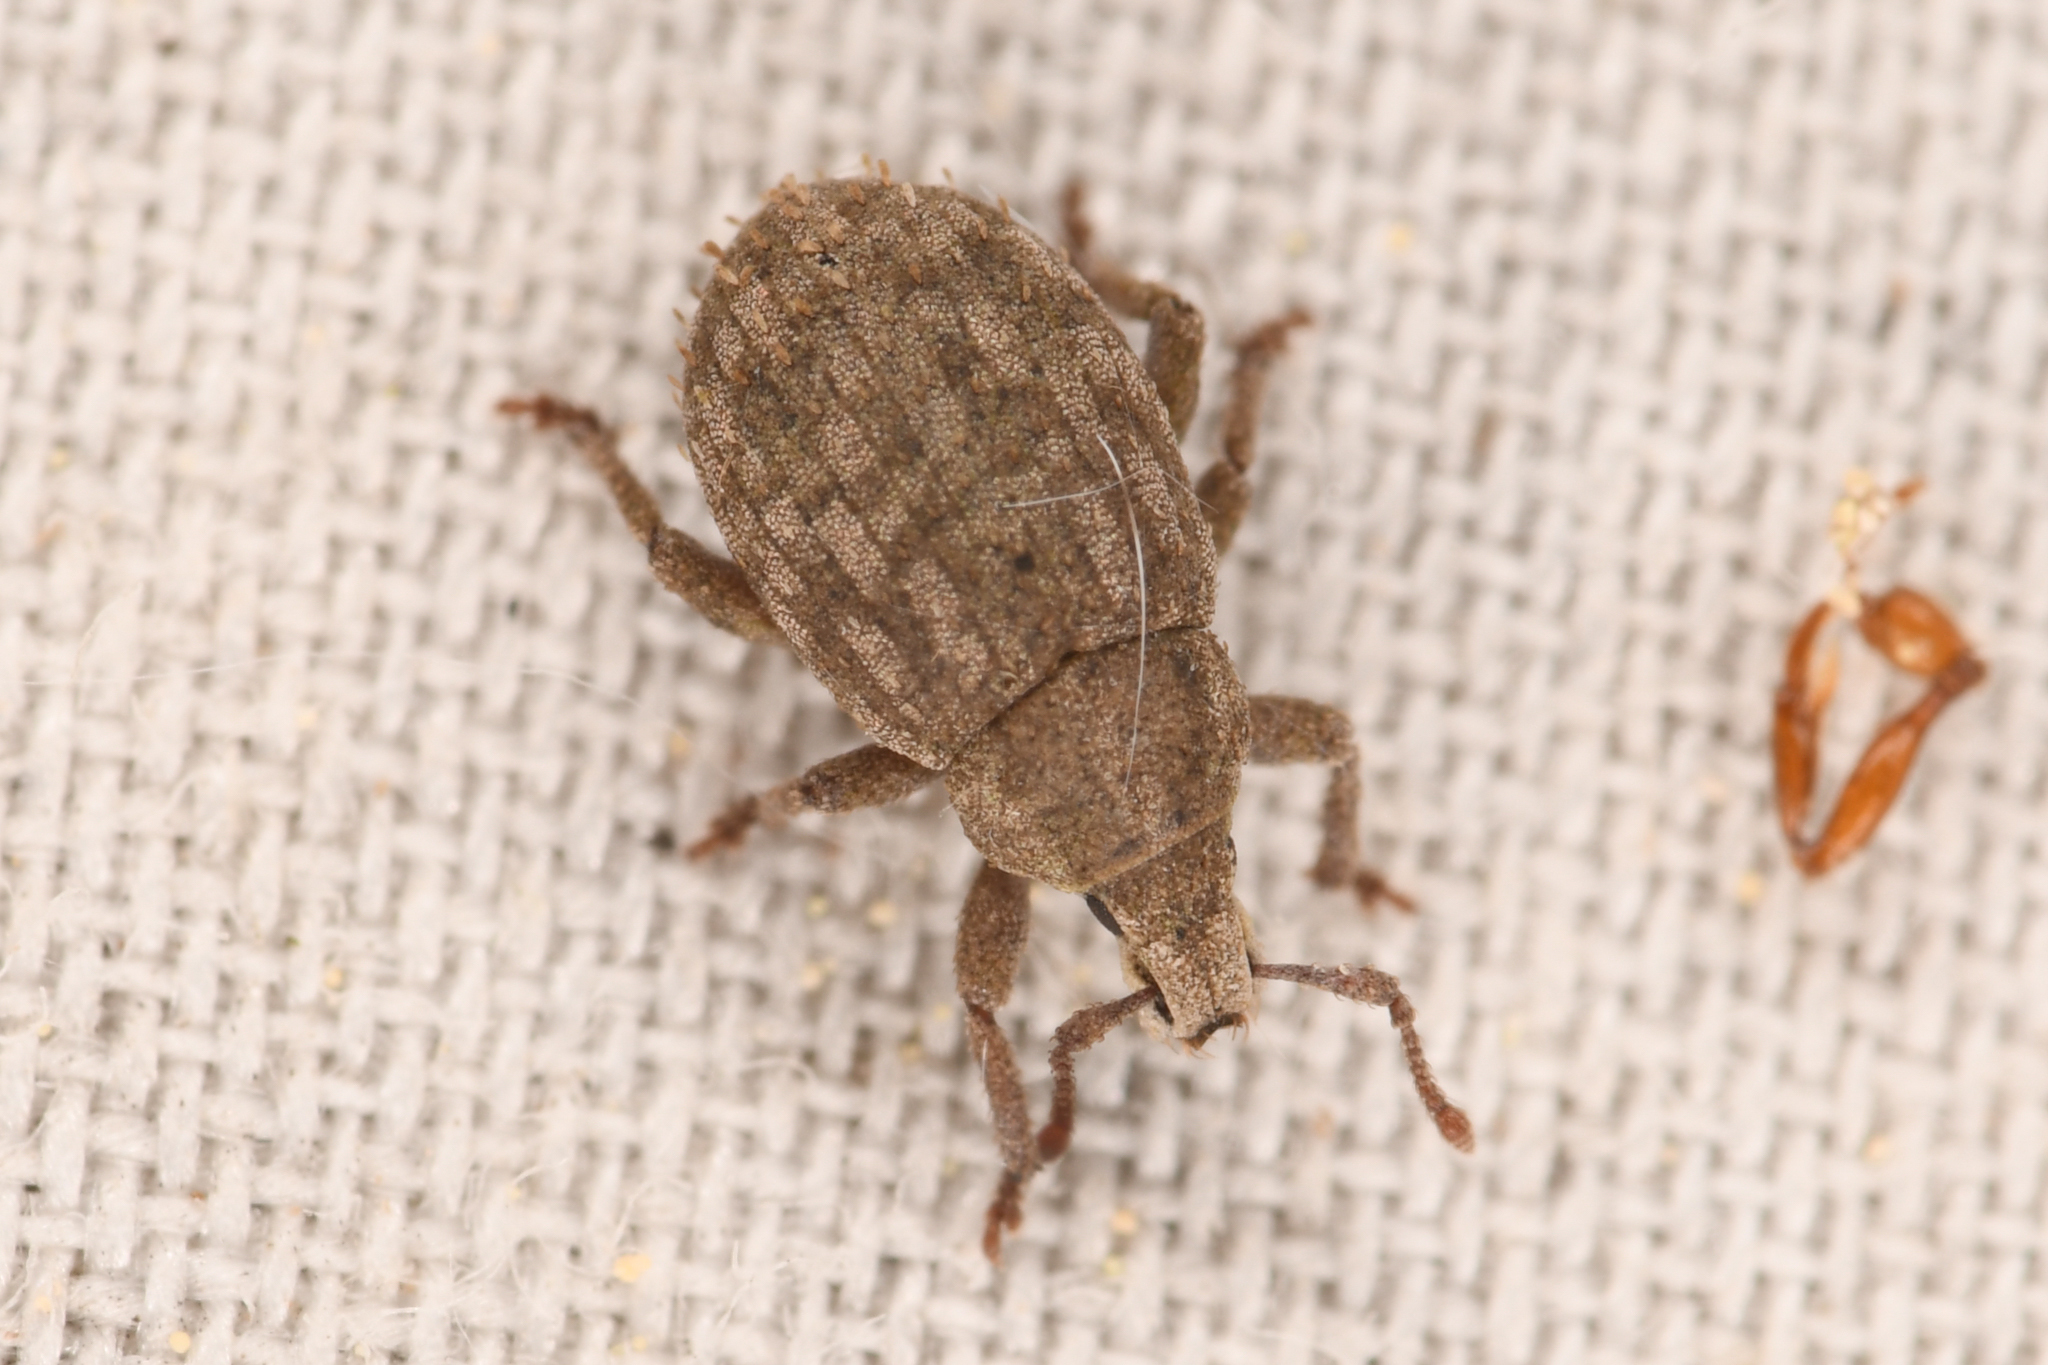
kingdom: Animalia
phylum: Arthropoda
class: Insecta
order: Coleoptera
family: Curculionidae
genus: Romualdius
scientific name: Romualdius scaber
